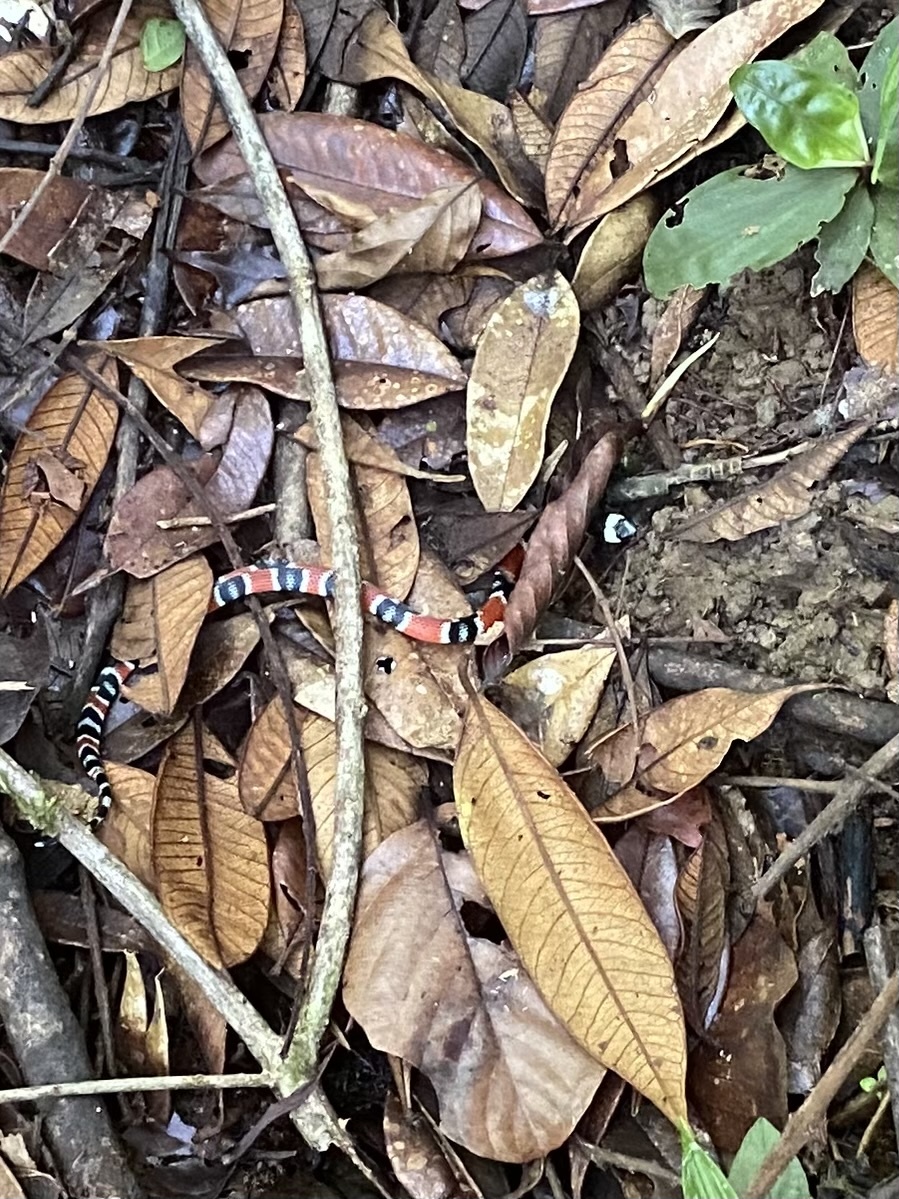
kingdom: Animalia
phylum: Chordata
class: Squamata
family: Colubridae
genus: Erythrolamprus
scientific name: Erythrolamprus mimus
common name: Mimic false coral snake
